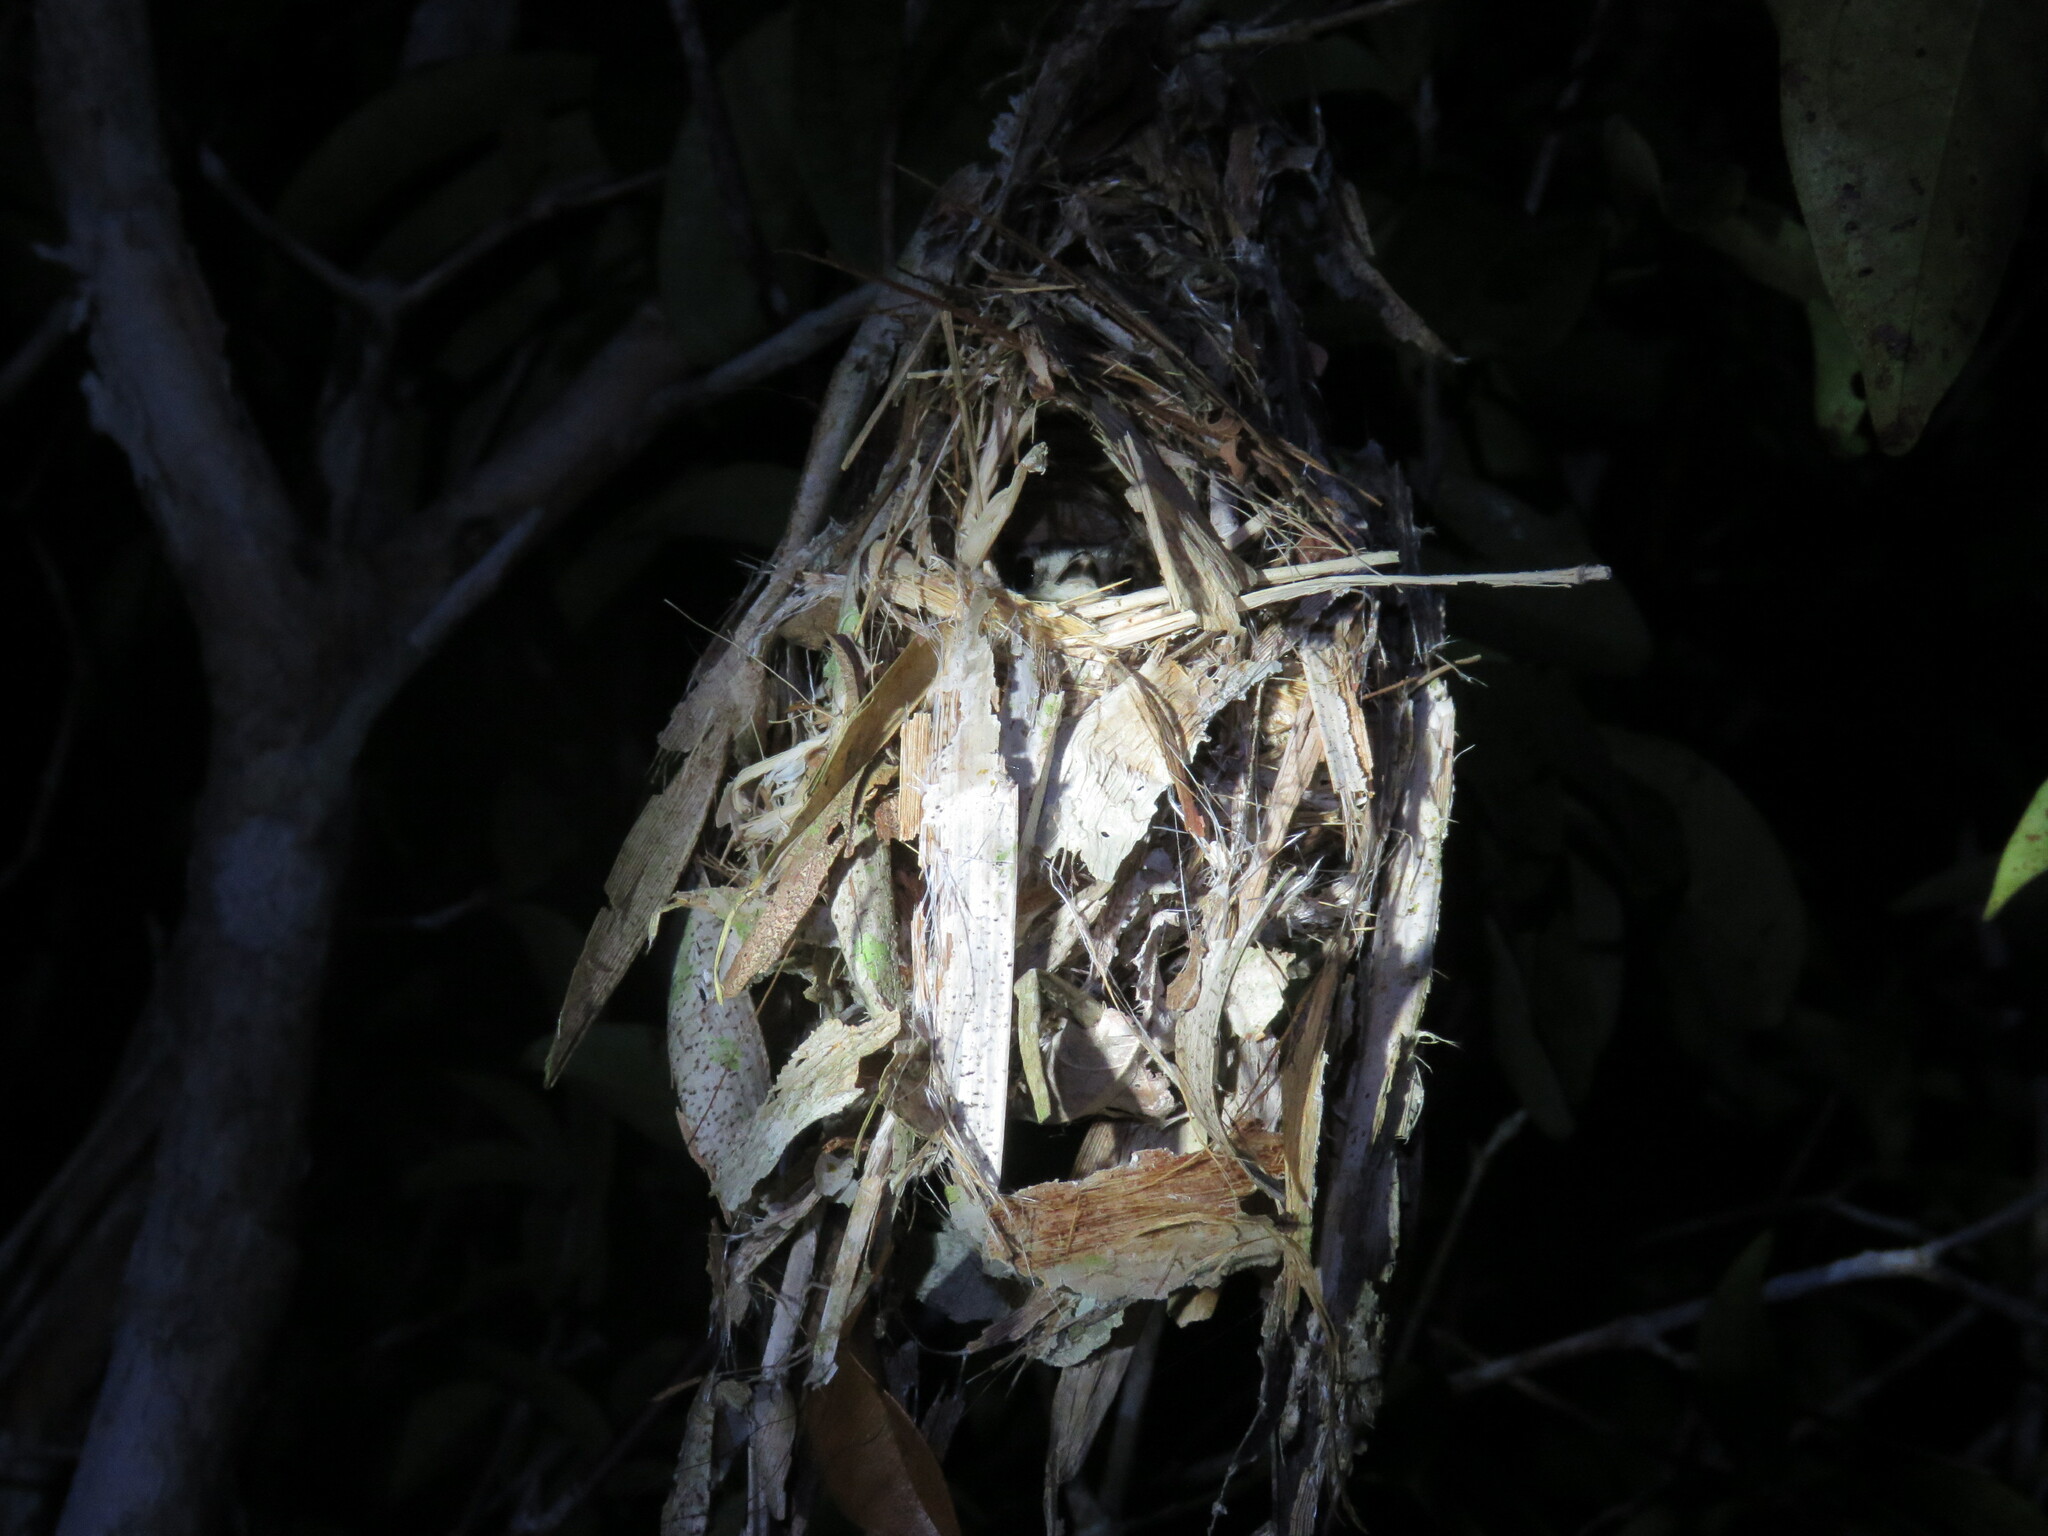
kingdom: Animalia
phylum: Chordata
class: Aves
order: Passeriformes
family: Tyrannidae
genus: Myiornis
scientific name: Myiornis ecaudatus
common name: Short-tailed pygmy tyrant
